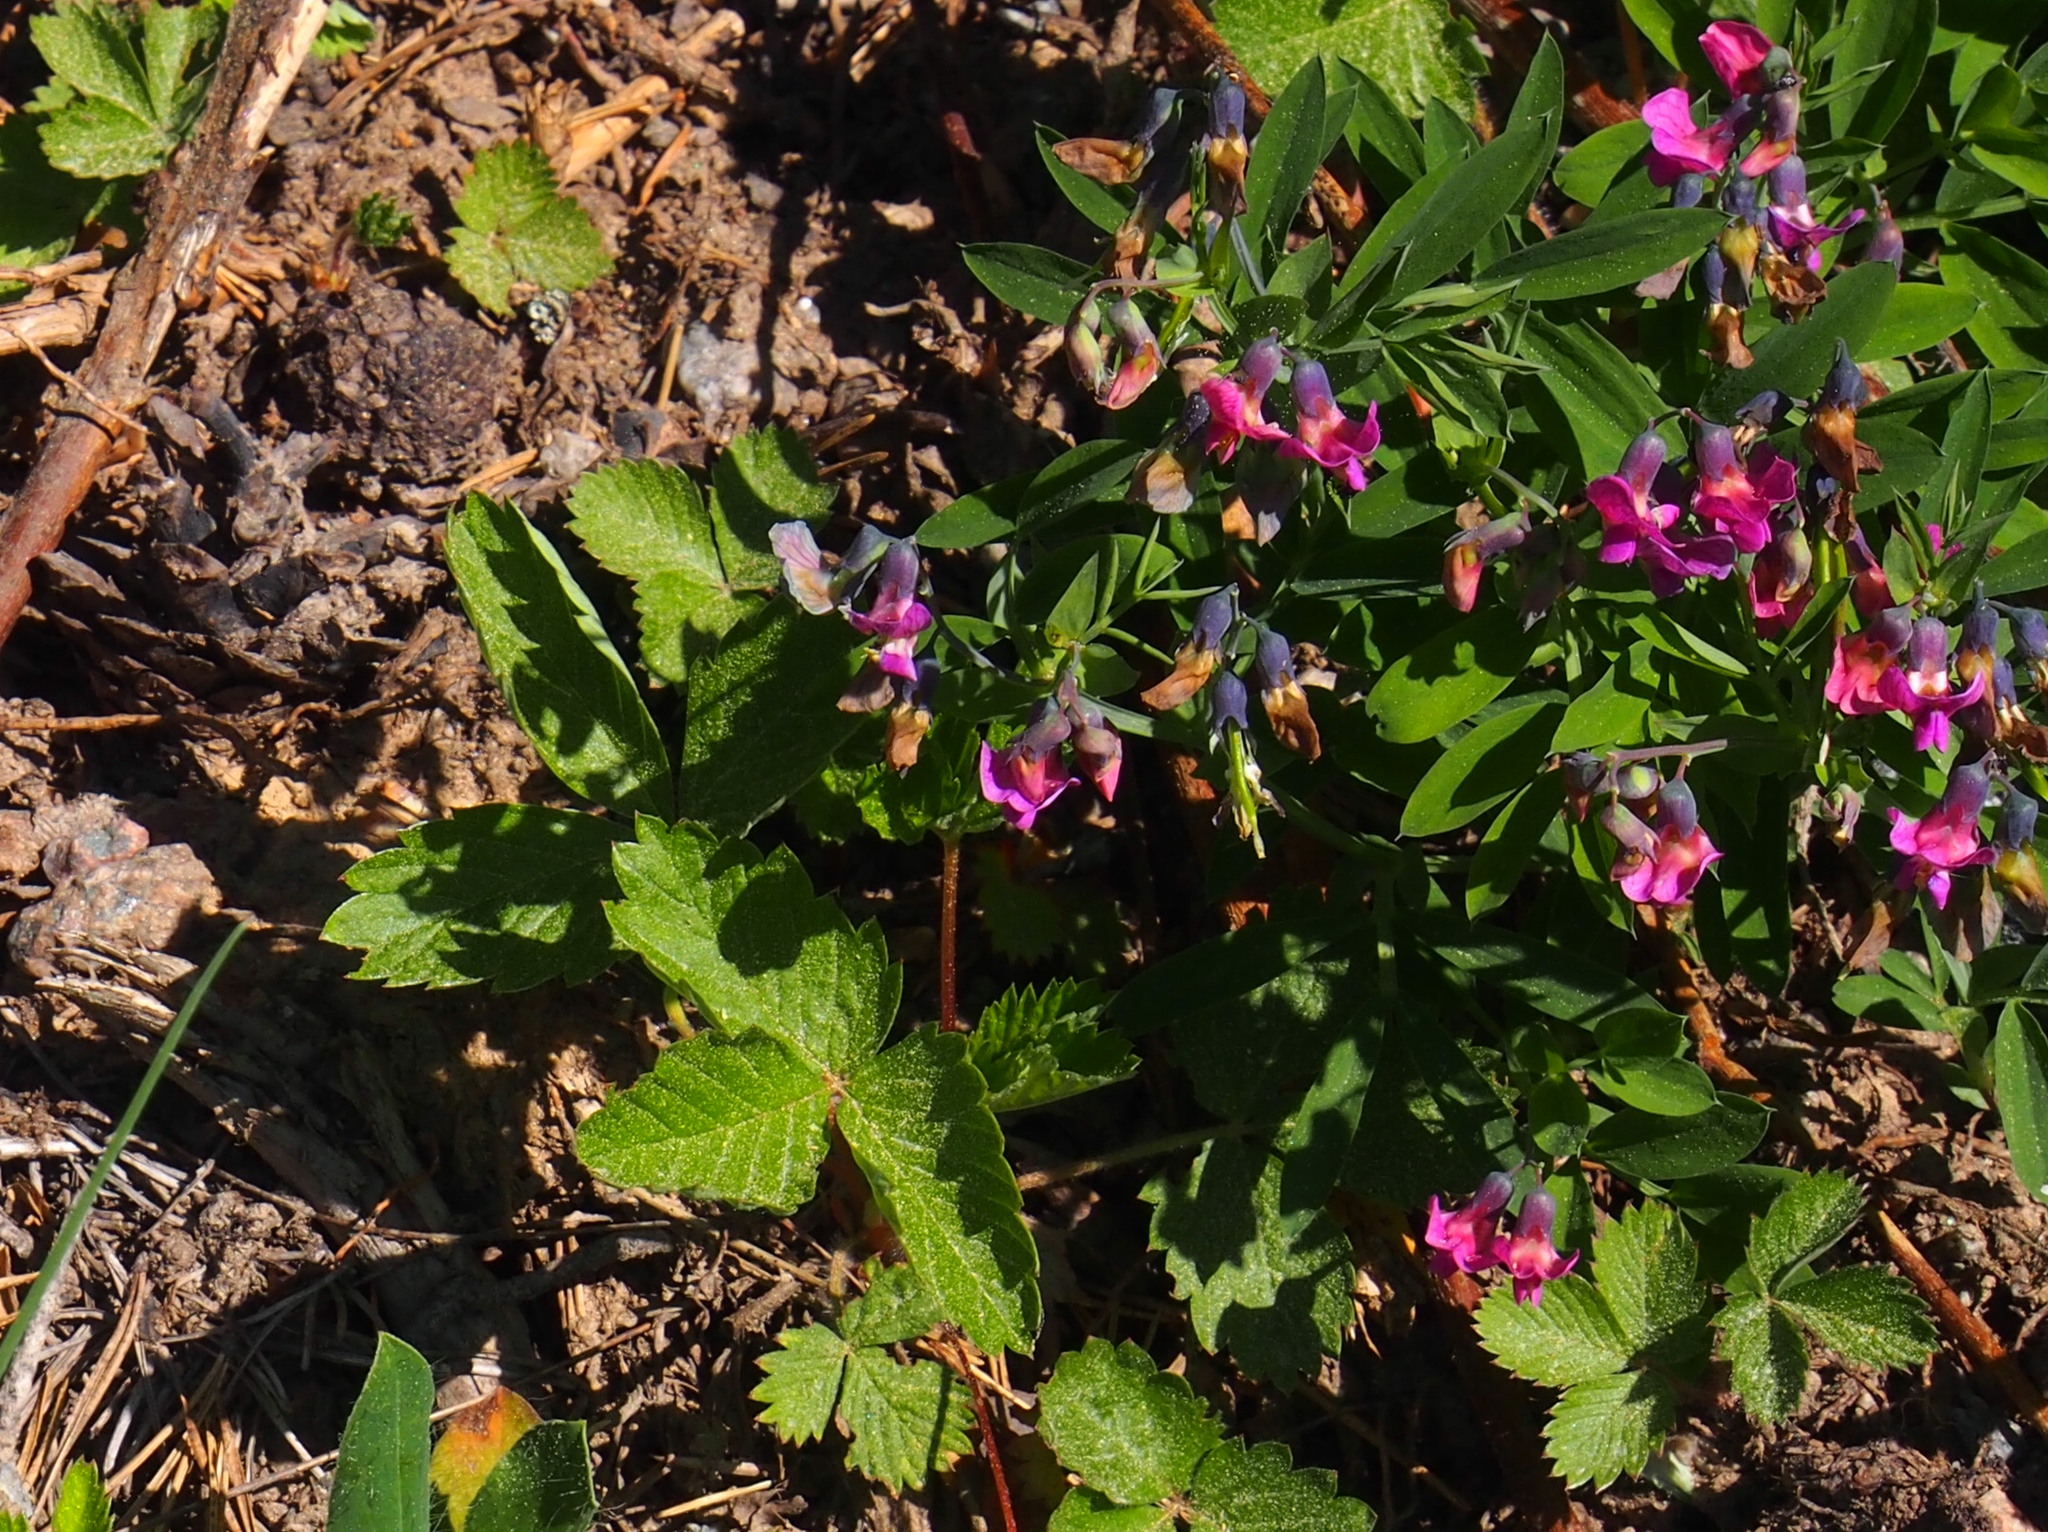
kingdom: Plantae
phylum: Tracheophyta
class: Magnoliopsida
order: Fabales
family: Fabaceae
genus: Lathyrus
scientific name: Lathyrus linifolius
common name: Bitter-vetch
